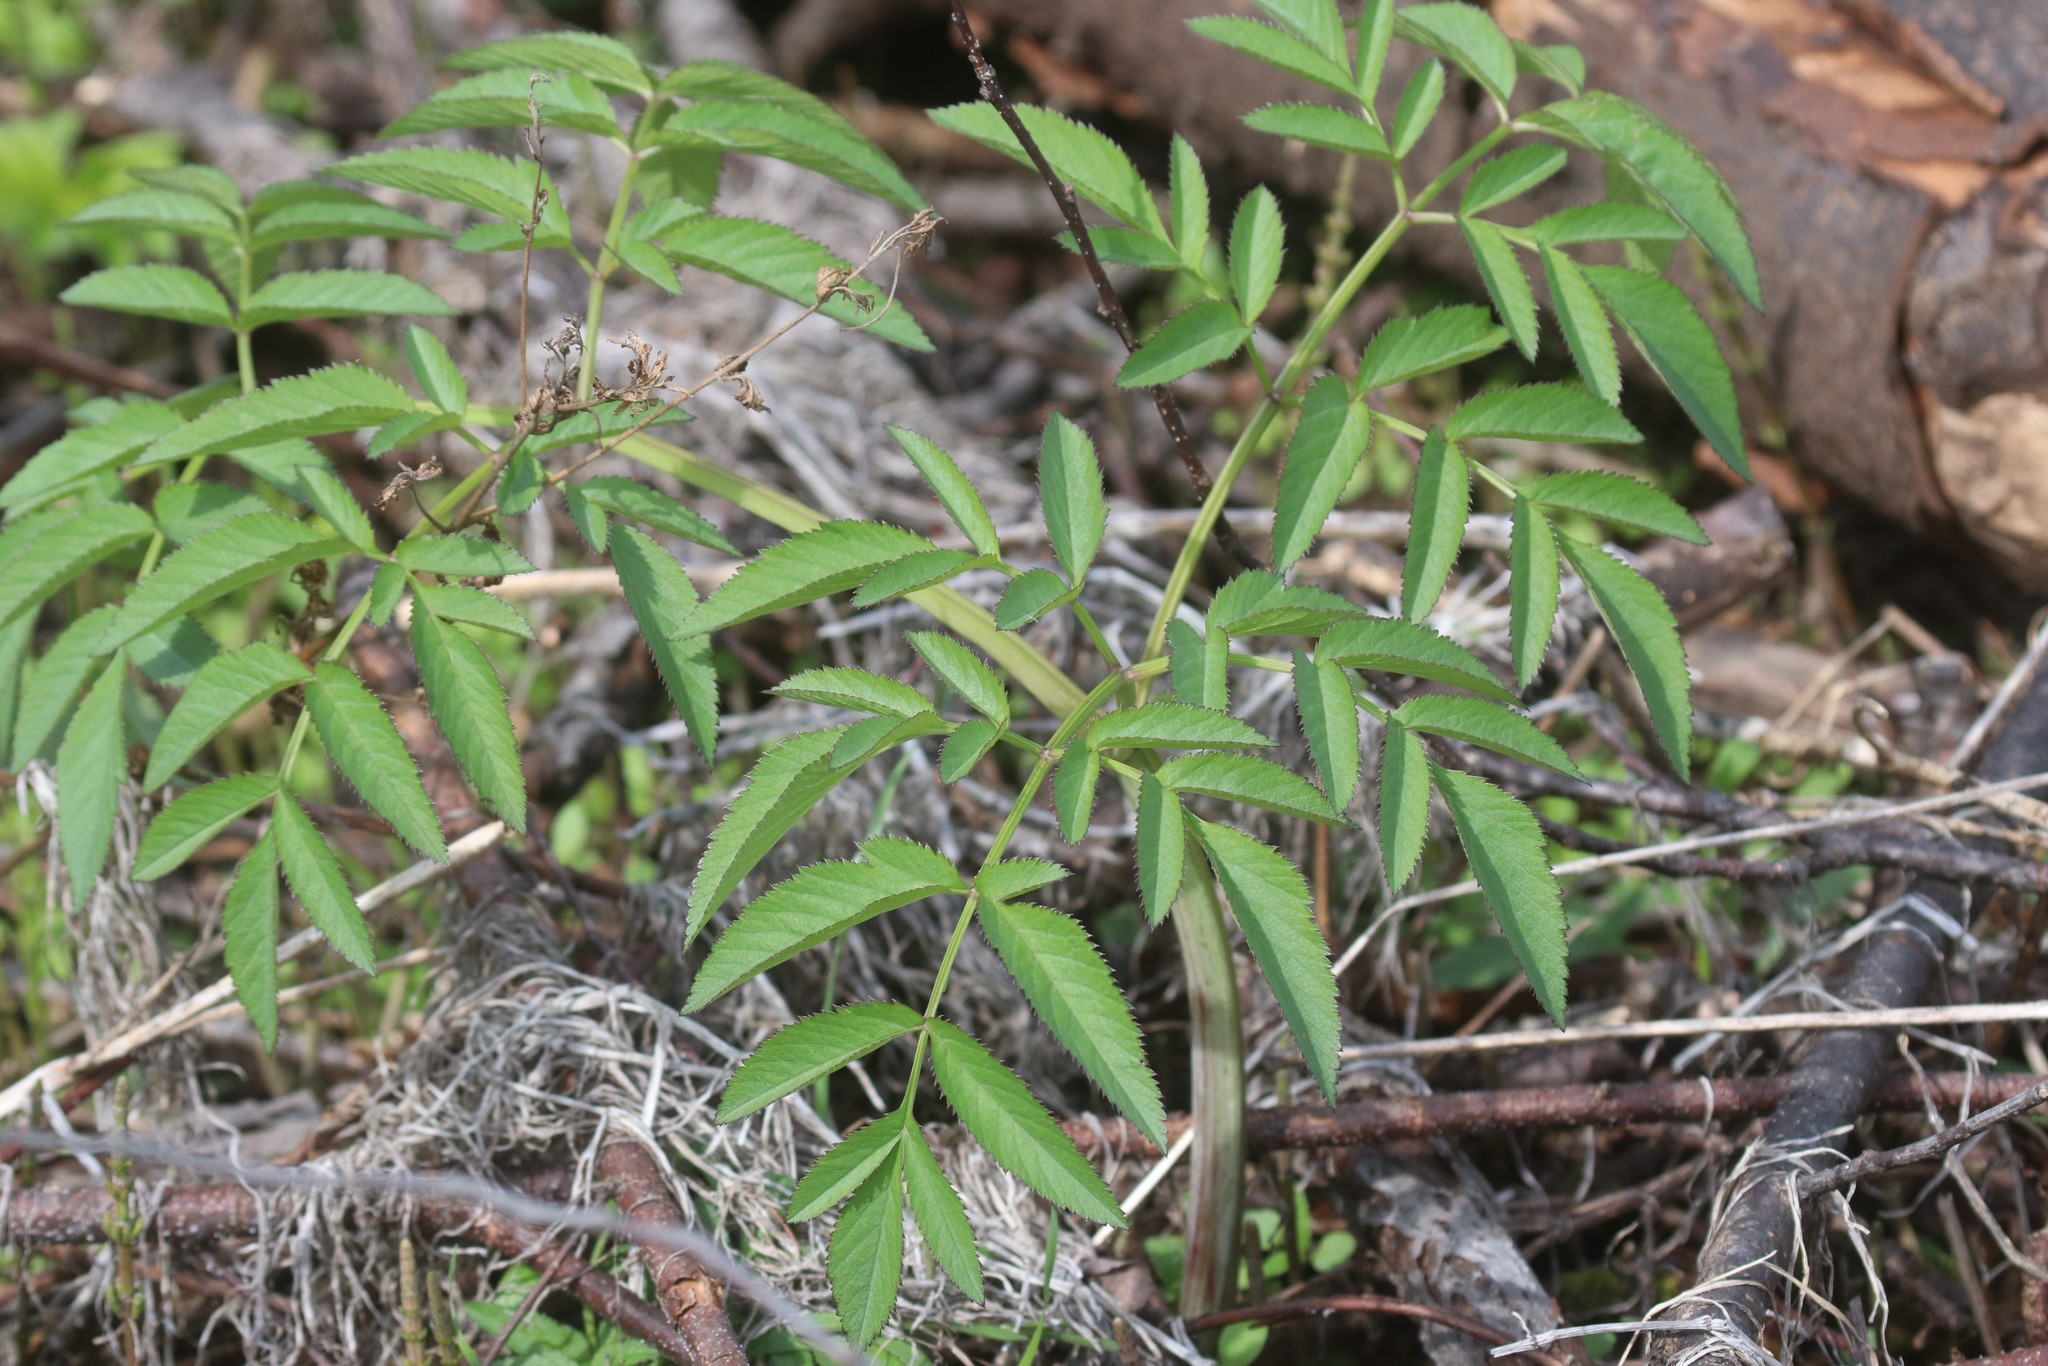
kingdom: Plantae
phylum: Tracheophyta
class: Magnoliopsida
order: Apiales
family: Apiaceae
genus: Angelica
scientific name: Angelica sylvestris
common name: Wild angelica
